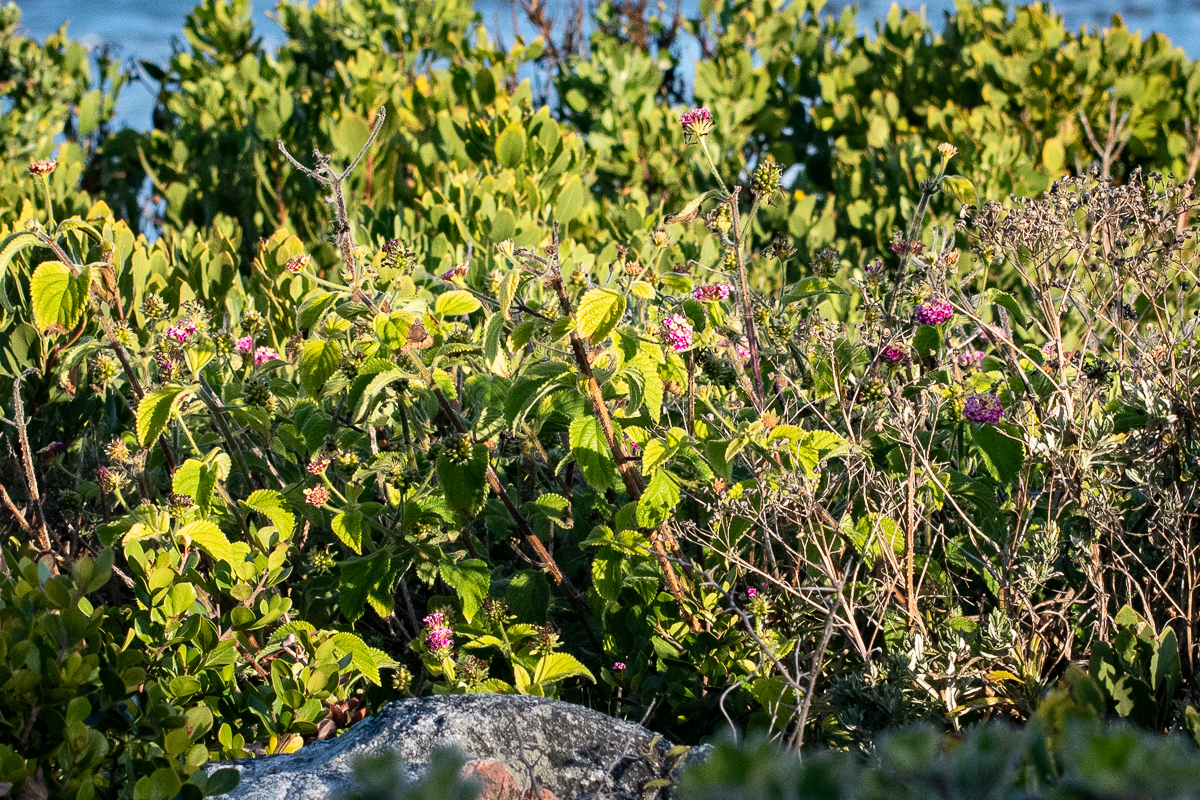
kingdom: Plantae
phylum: Tracheophyta
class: Magnoliopsida
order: Lamiales
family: Verbenaceae
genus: Lantana
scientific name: Lantana camara
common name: Lantana
